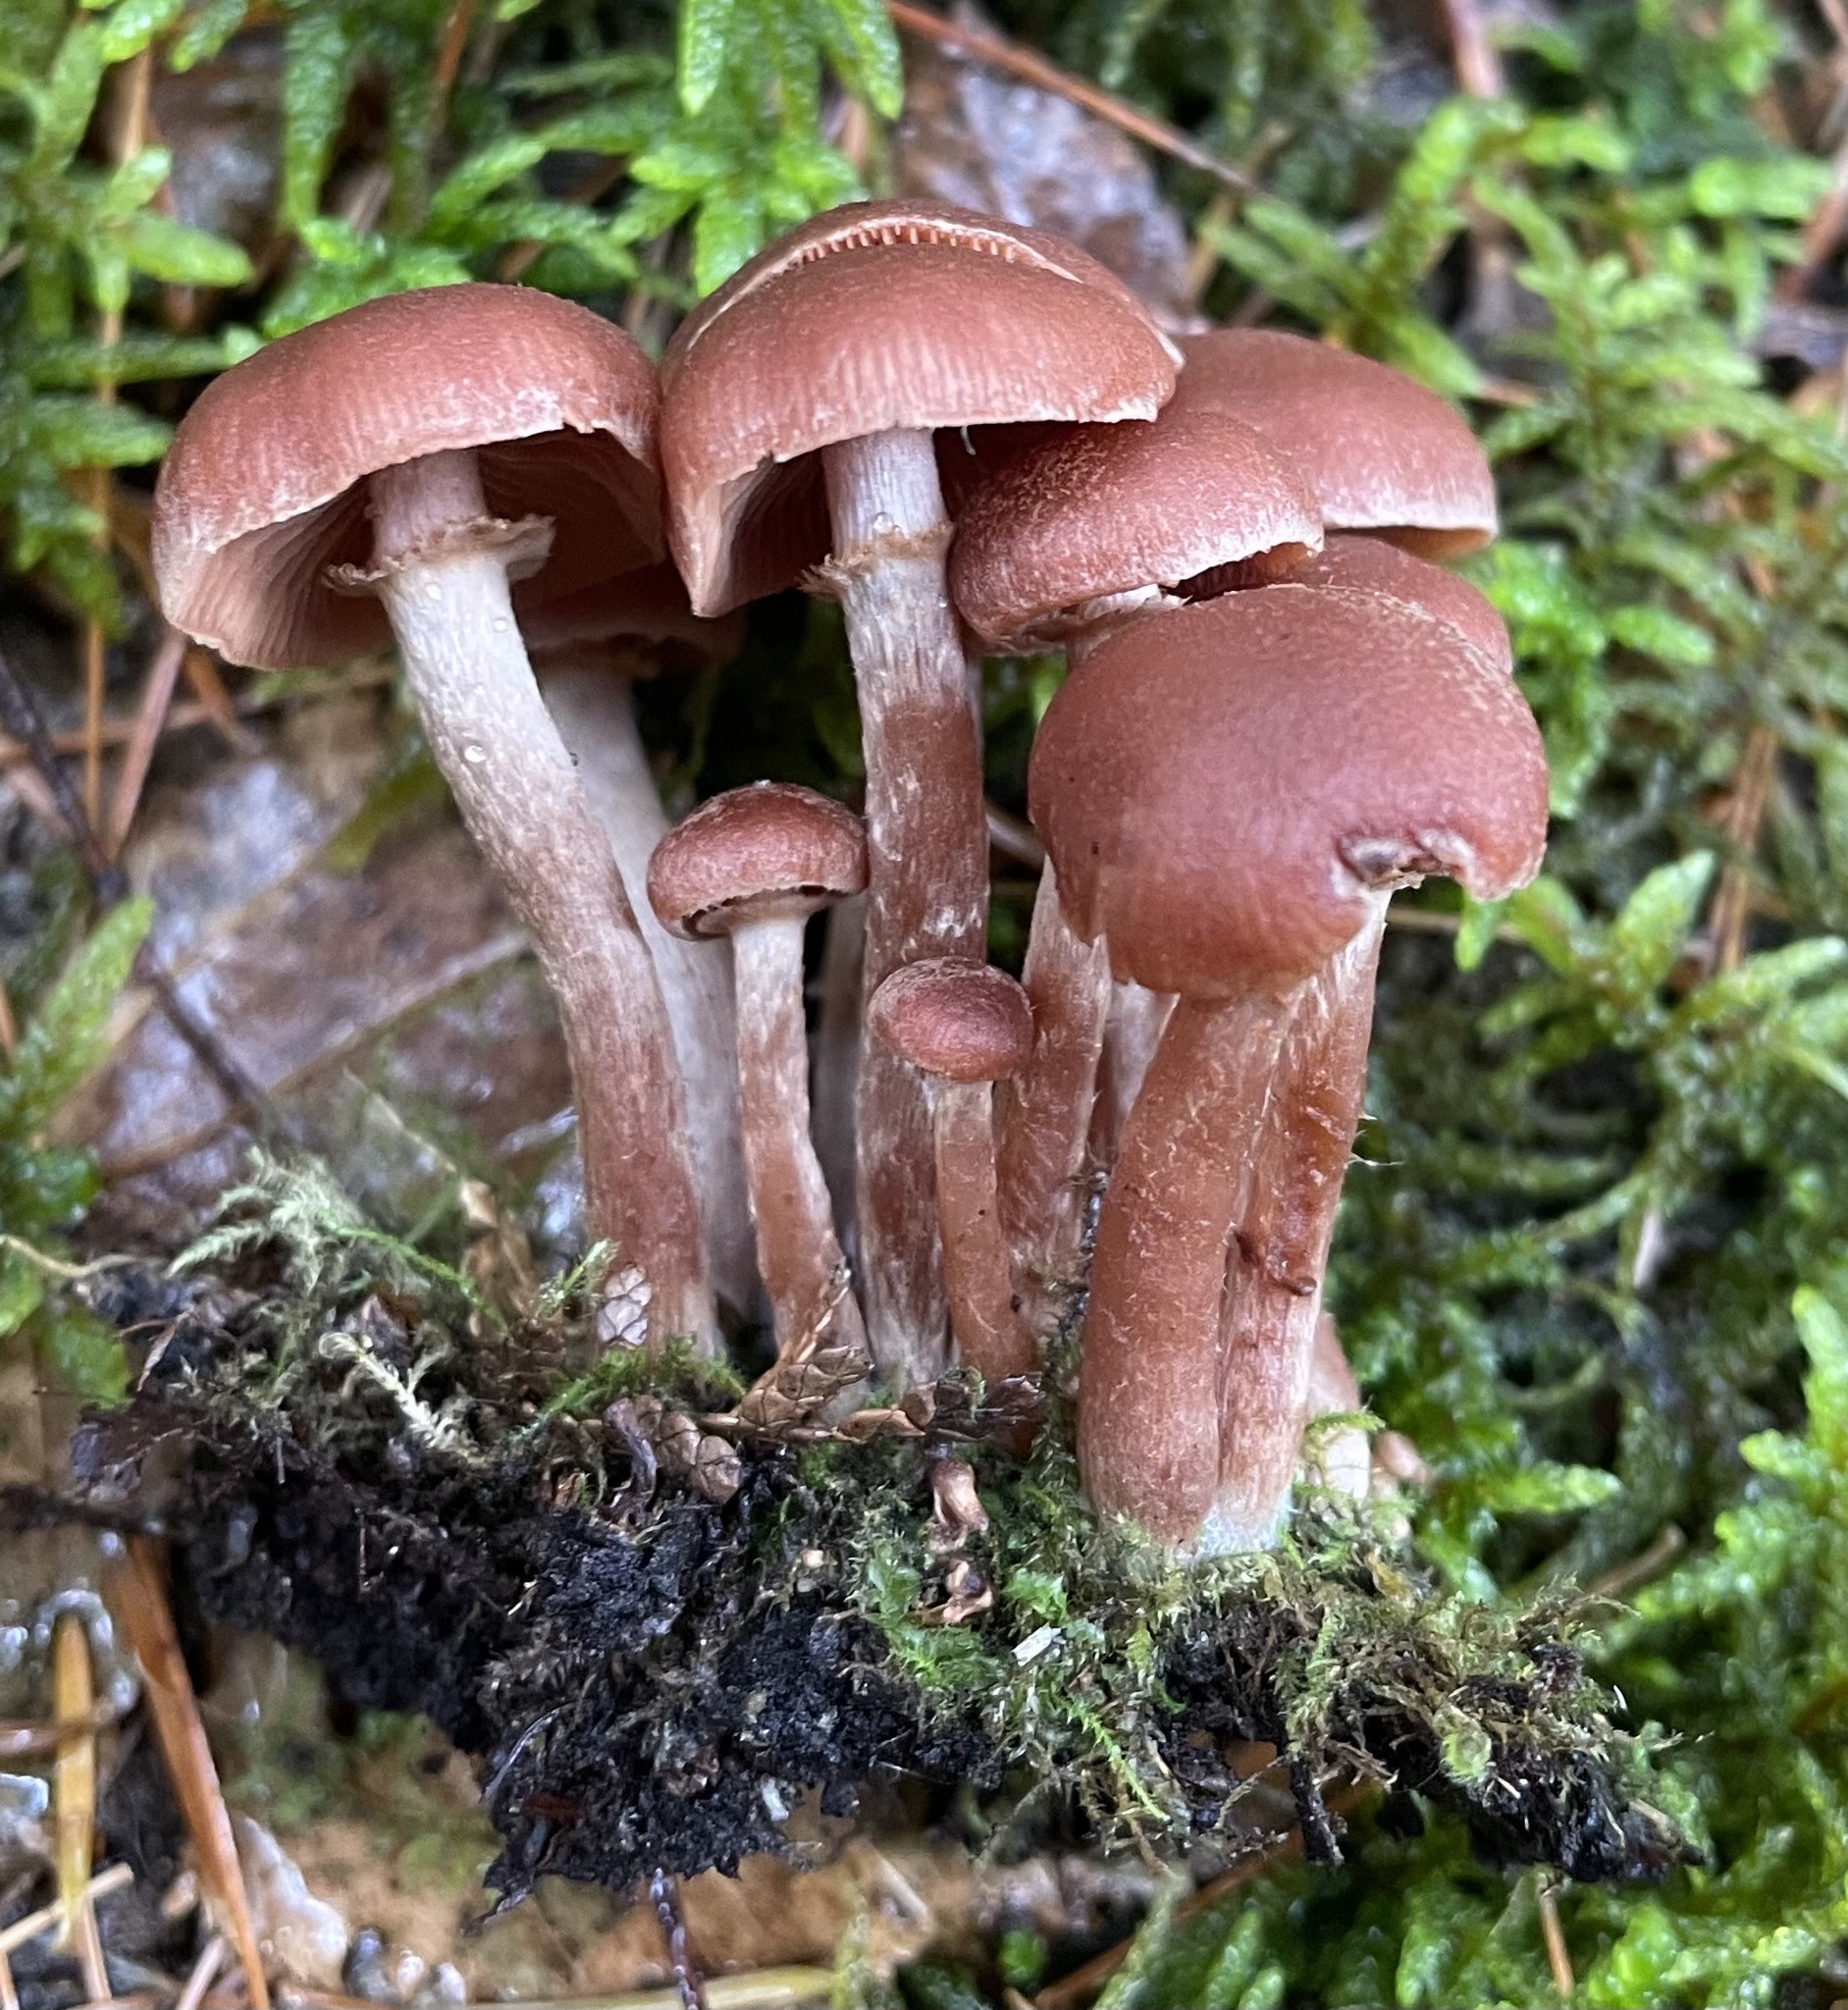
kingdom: Fungi
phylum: Basidiomycota
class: Agaricomycetes
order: Agaricales
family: Tubariaceae
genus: Tubaria
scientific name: Tubaria confragosa
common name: Ringed twiglet
